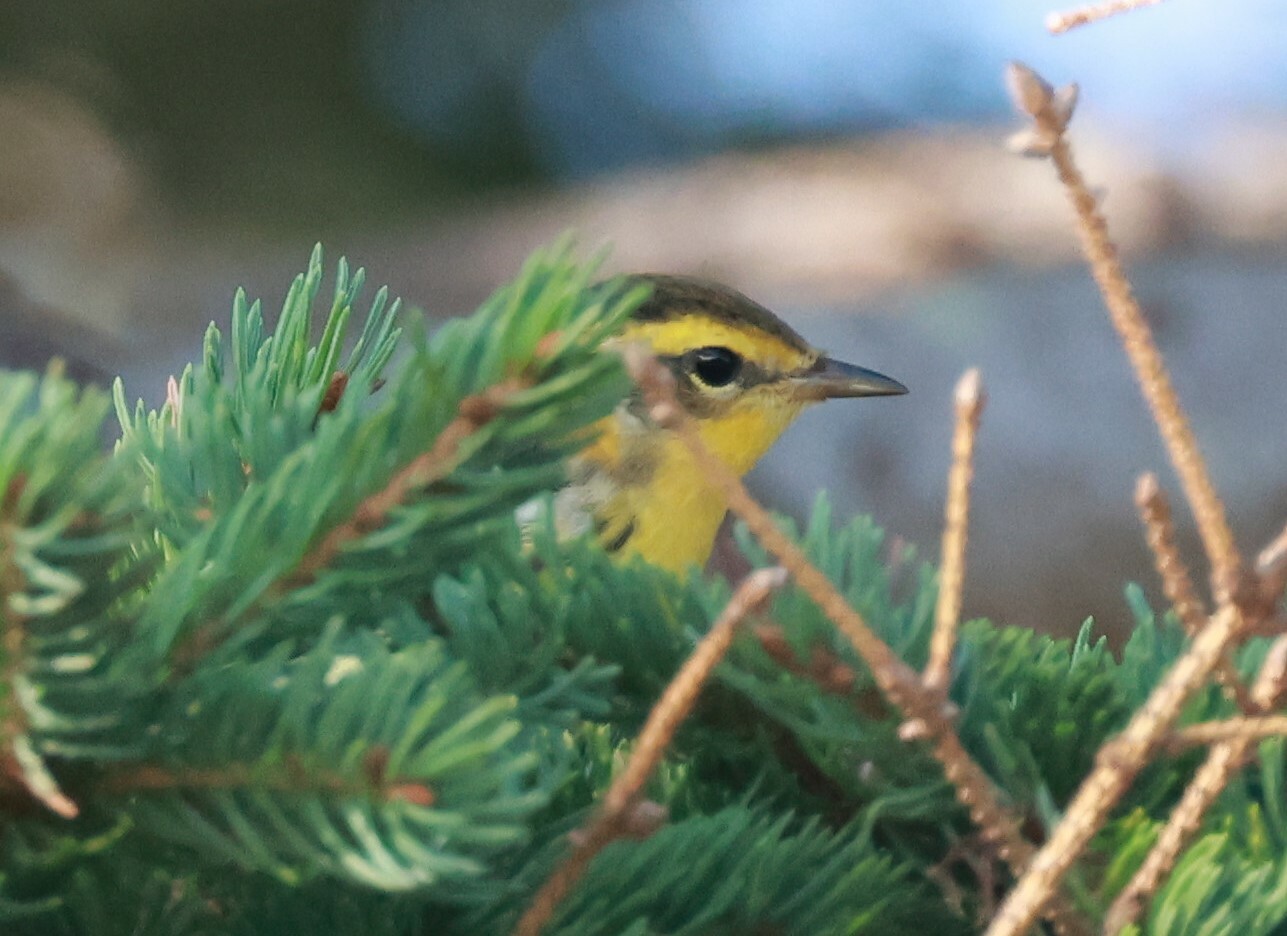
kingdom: Animalia
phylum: Chordata
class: Aves
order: Passeriformes
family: Parulidae
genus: Setophaga
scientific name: Setophaga fusca
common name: Blackburnian warbler
